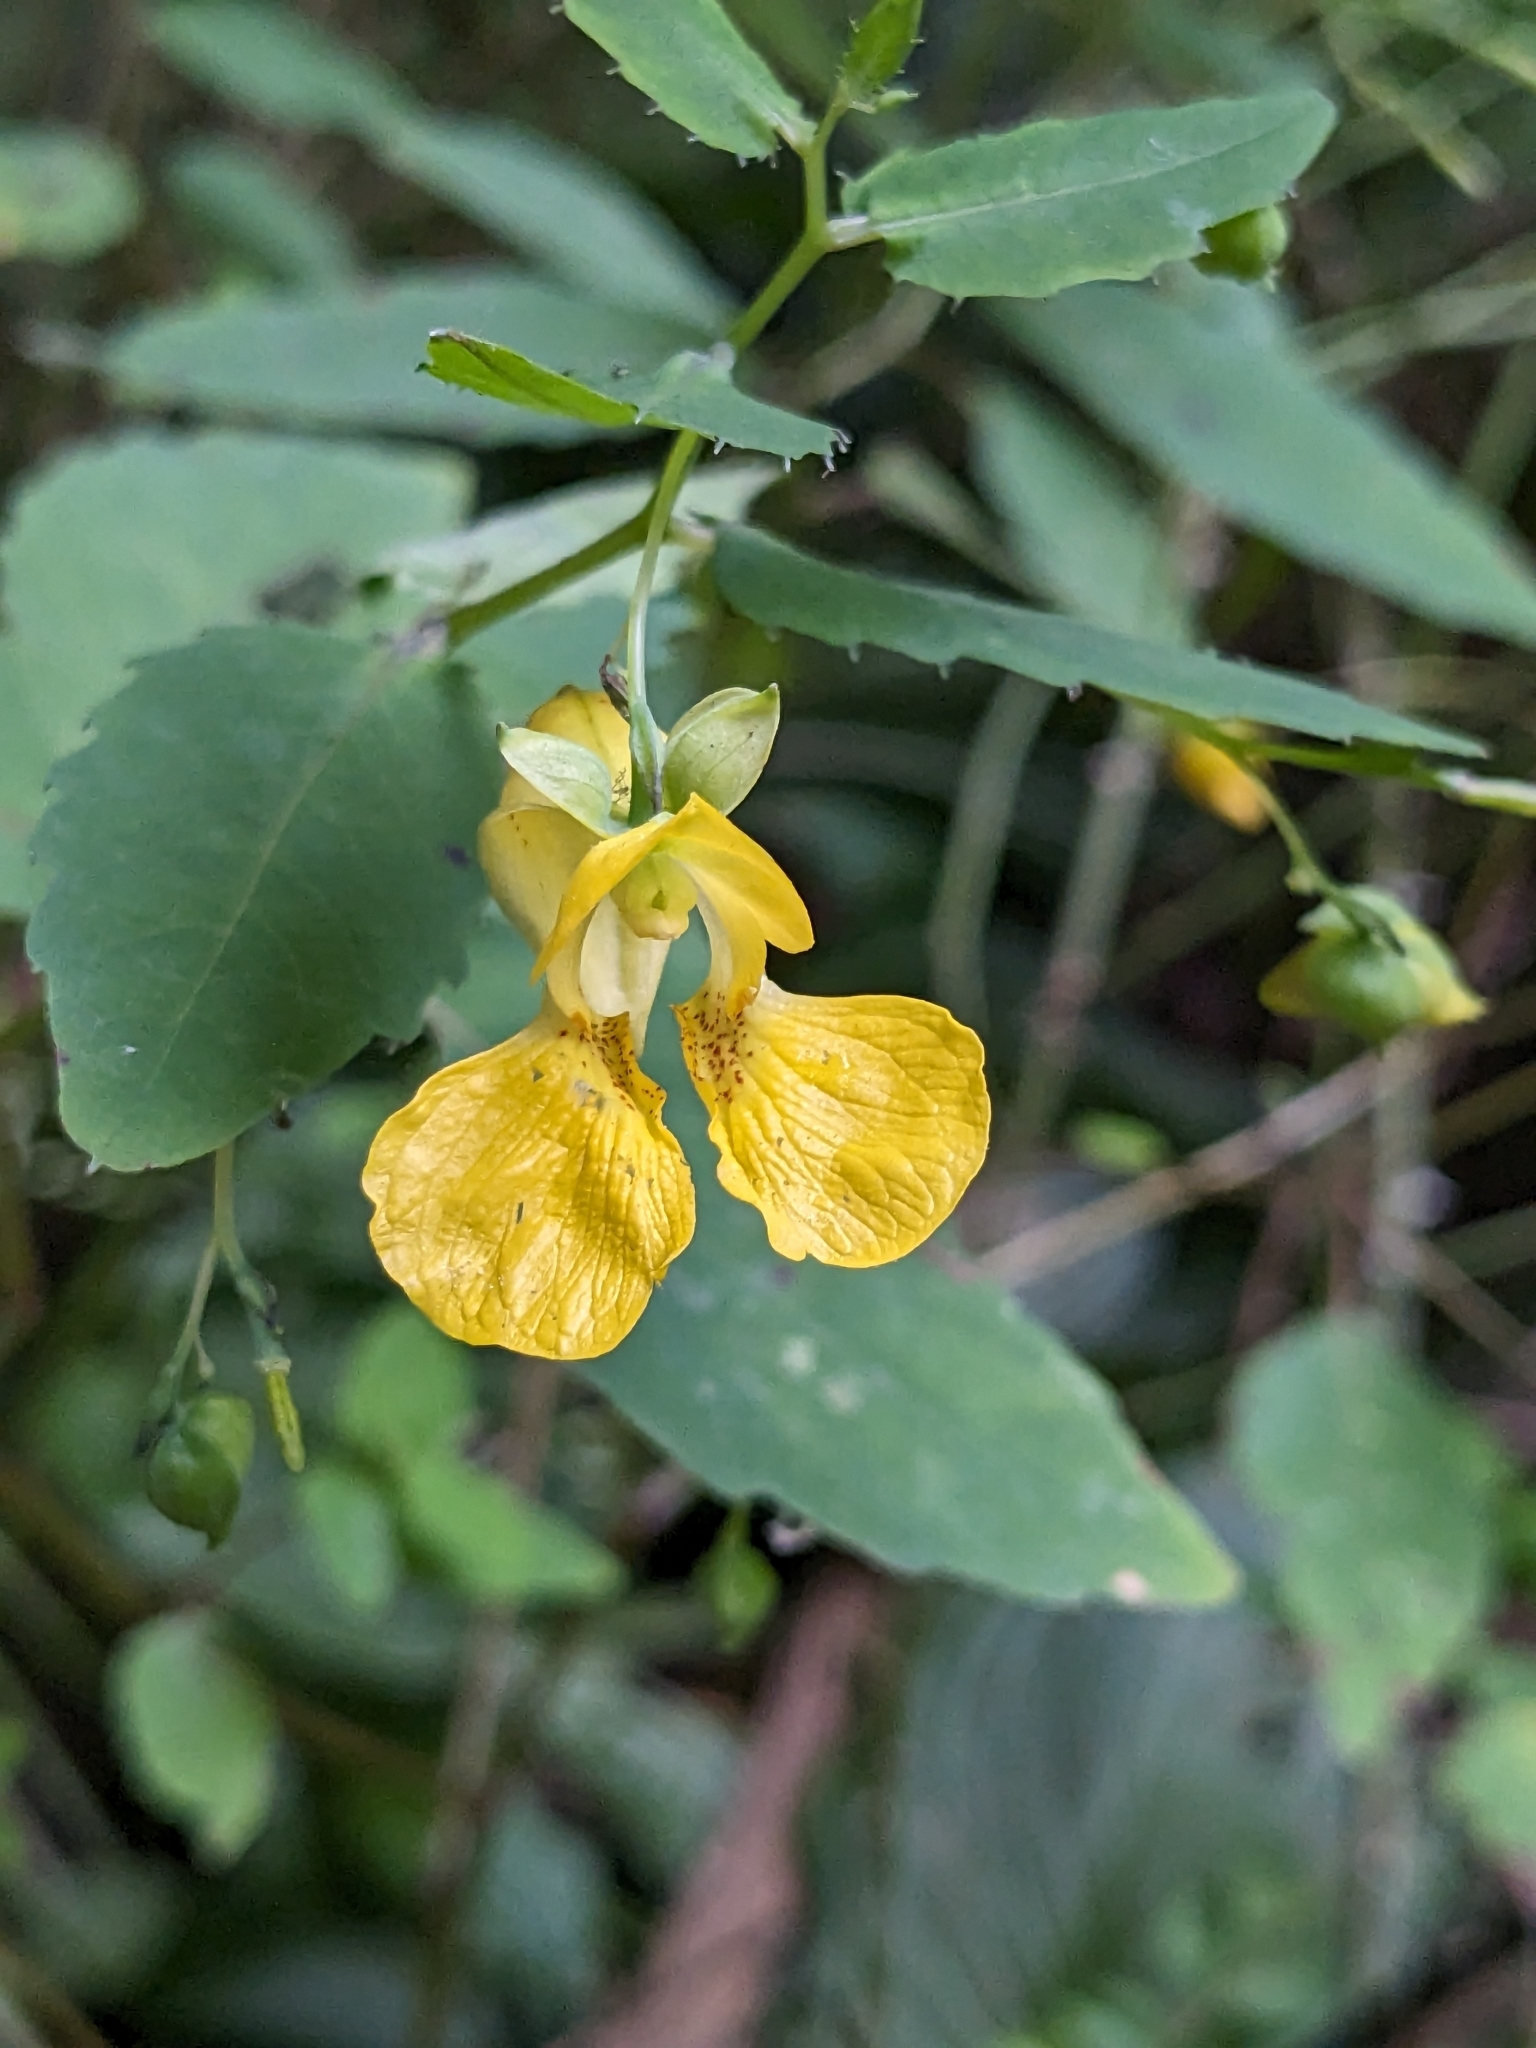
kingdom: Plantae
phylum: Tracheophyta
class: Magnoliopsida
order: Ericales
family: Balsaminaceae
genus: Impatiens
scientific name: Impatiens pallida
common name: Pale snapweed
